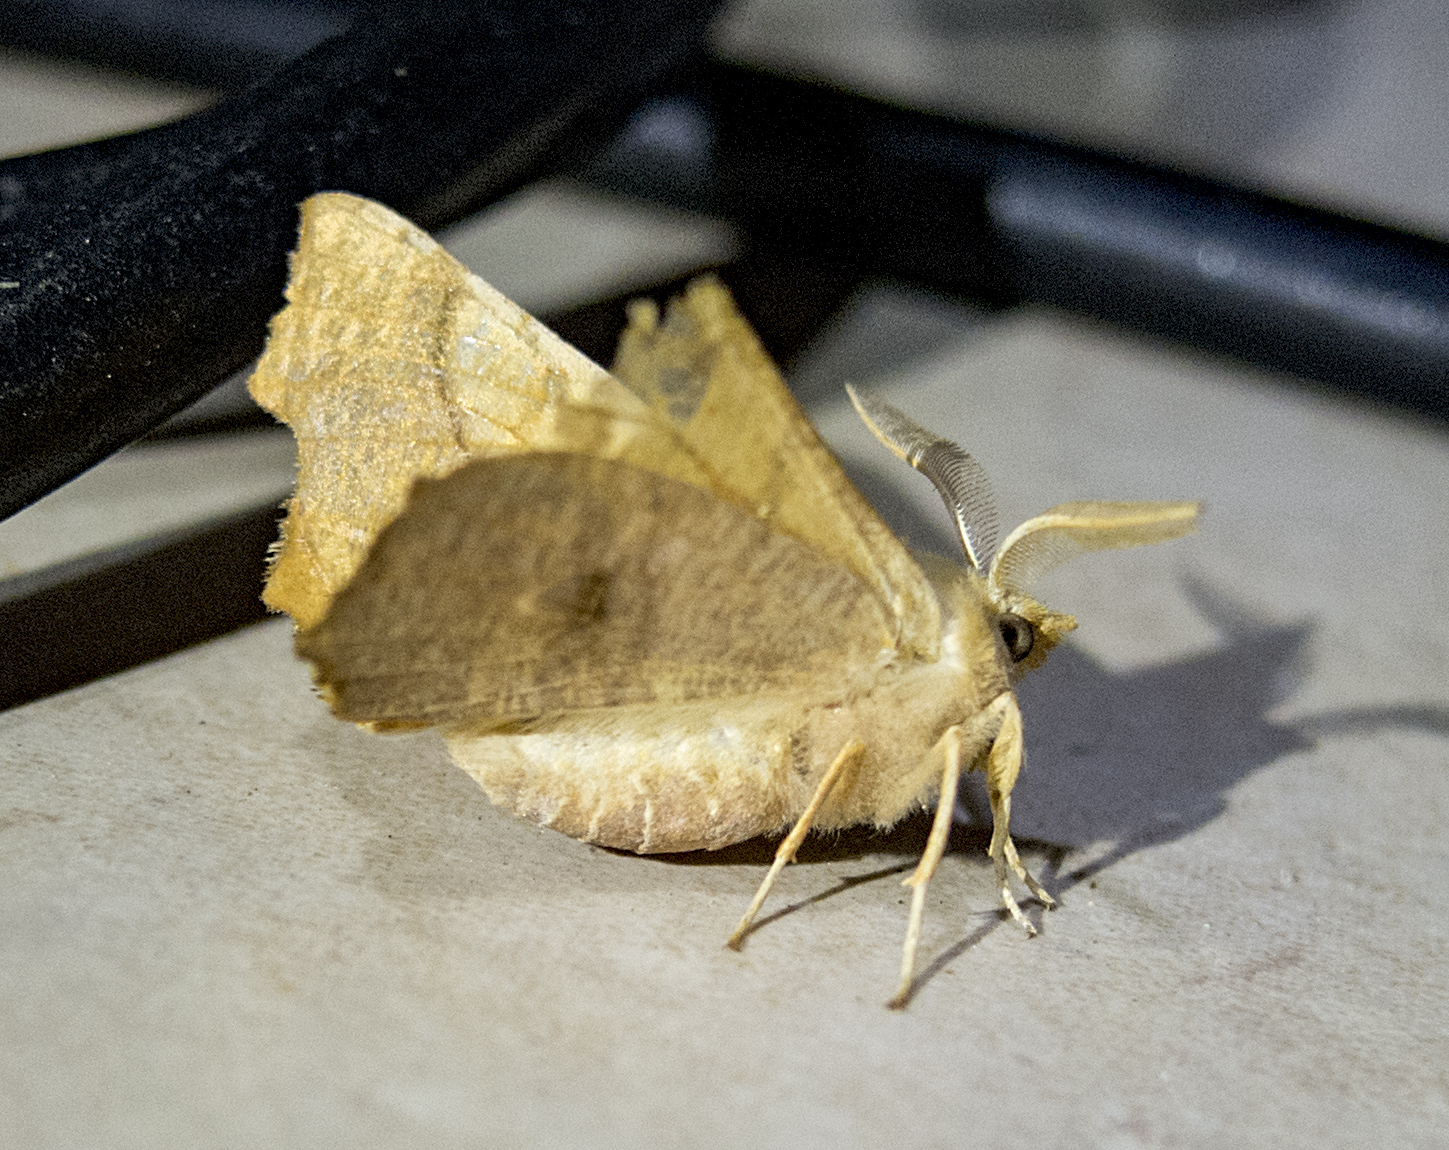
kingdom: Animalia
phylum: Arthropoda
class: Insecta
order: Lepidoptera
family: Geometridae
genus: Ennomos
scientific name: Ennomos fuscantaria
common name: Dusky thorn
